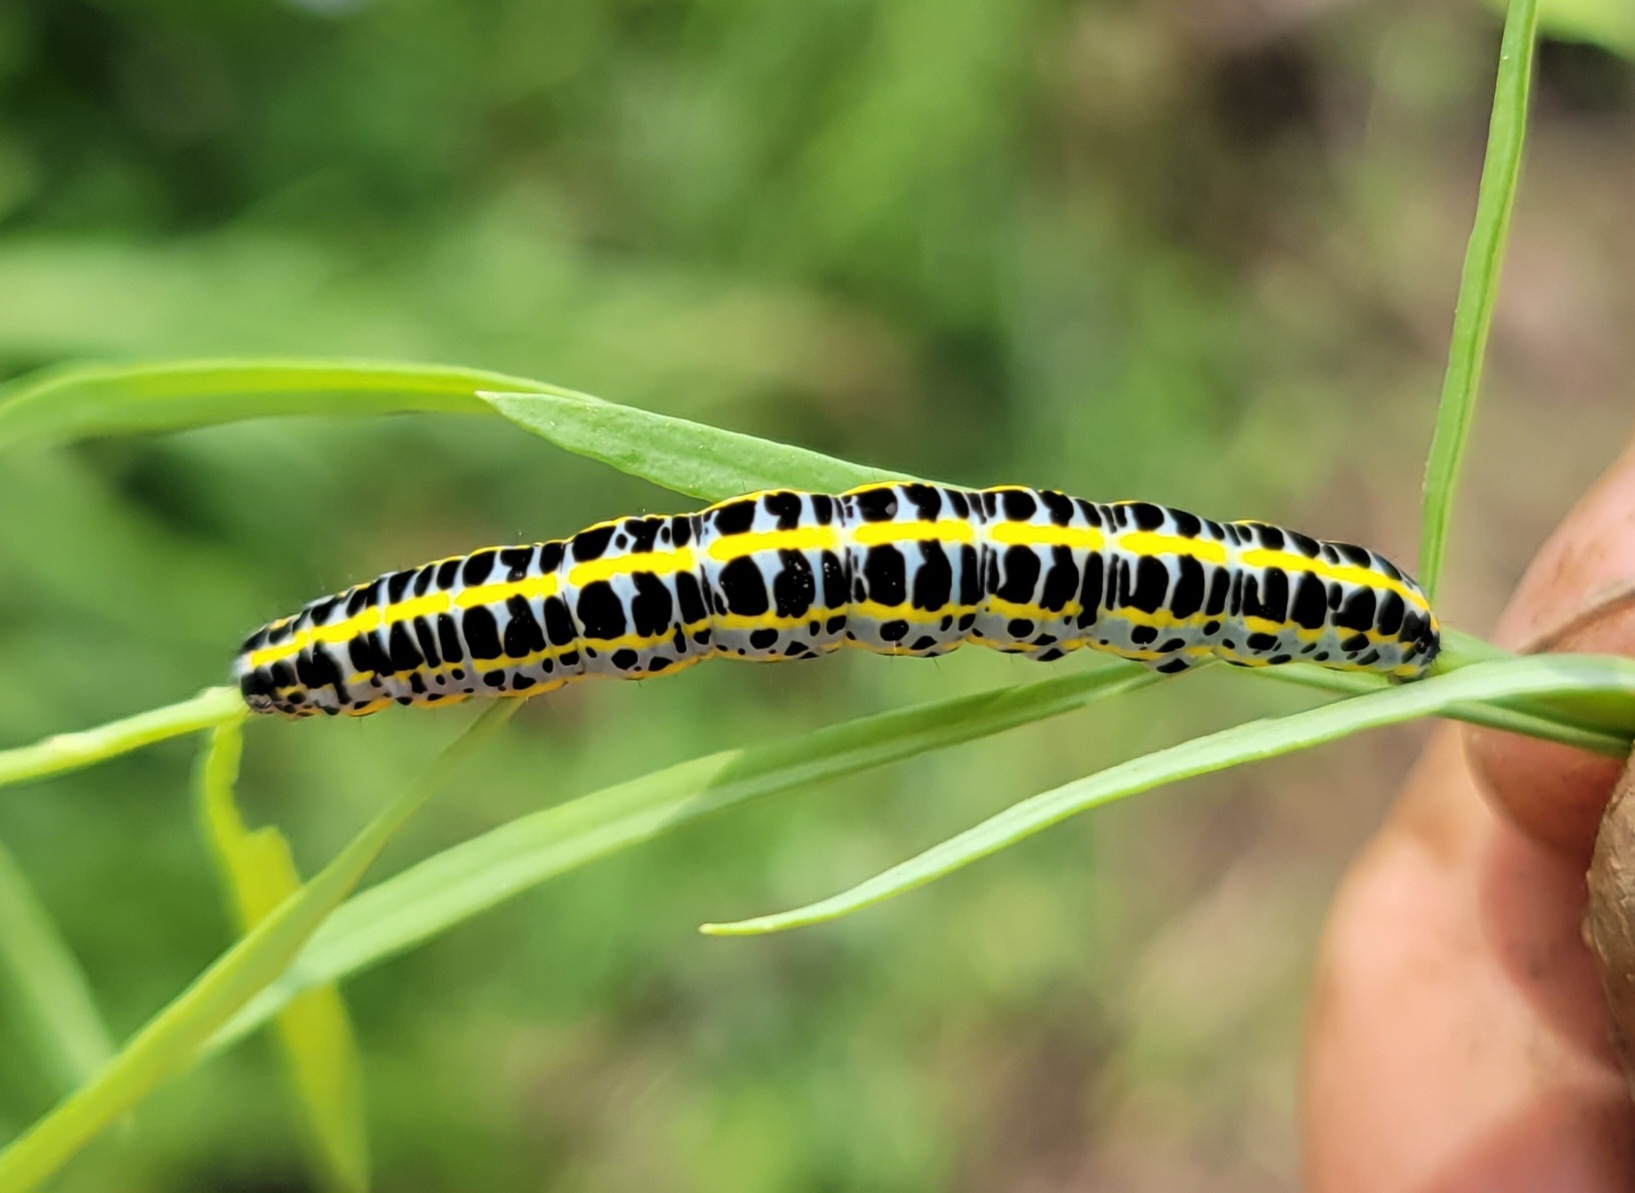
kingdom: Animalia
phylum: Arthropoda
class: Insecta
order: Lepidoptera
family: Noctuidae
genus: Calophasia
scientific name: Calophasia lunula
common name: Toadflax brocade
